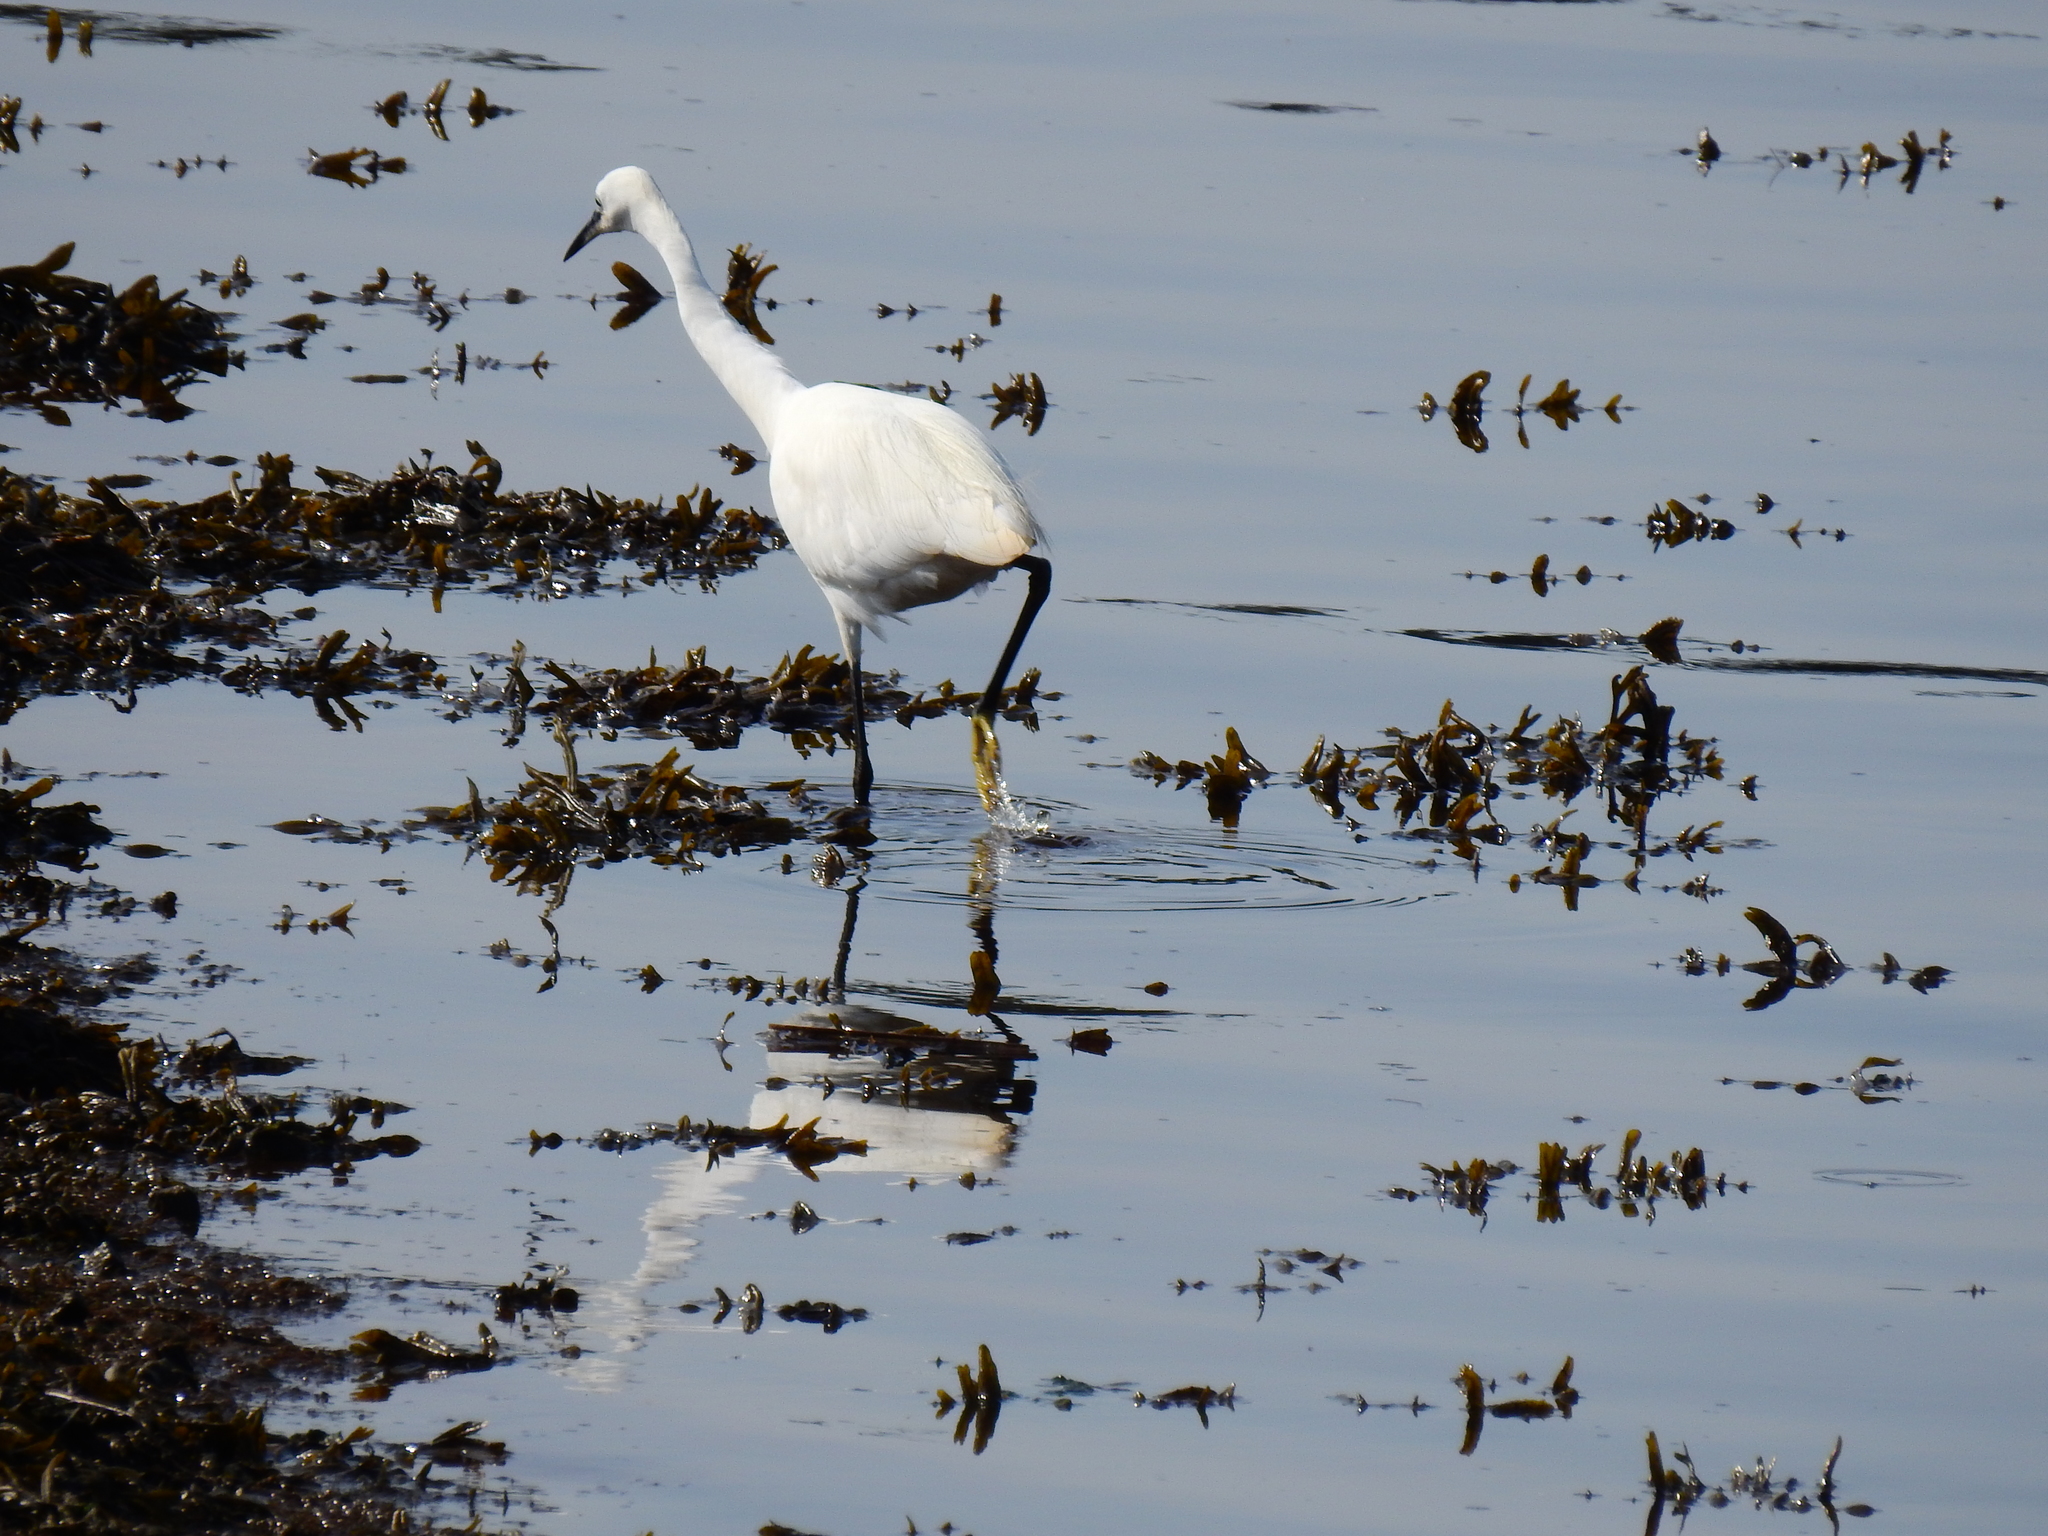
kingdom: Animalia
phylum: Chordata
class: Aves
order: Pelecaniformes
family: Ardeidae
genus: Egretta
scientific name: Egretta garzetta
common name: Little egret
